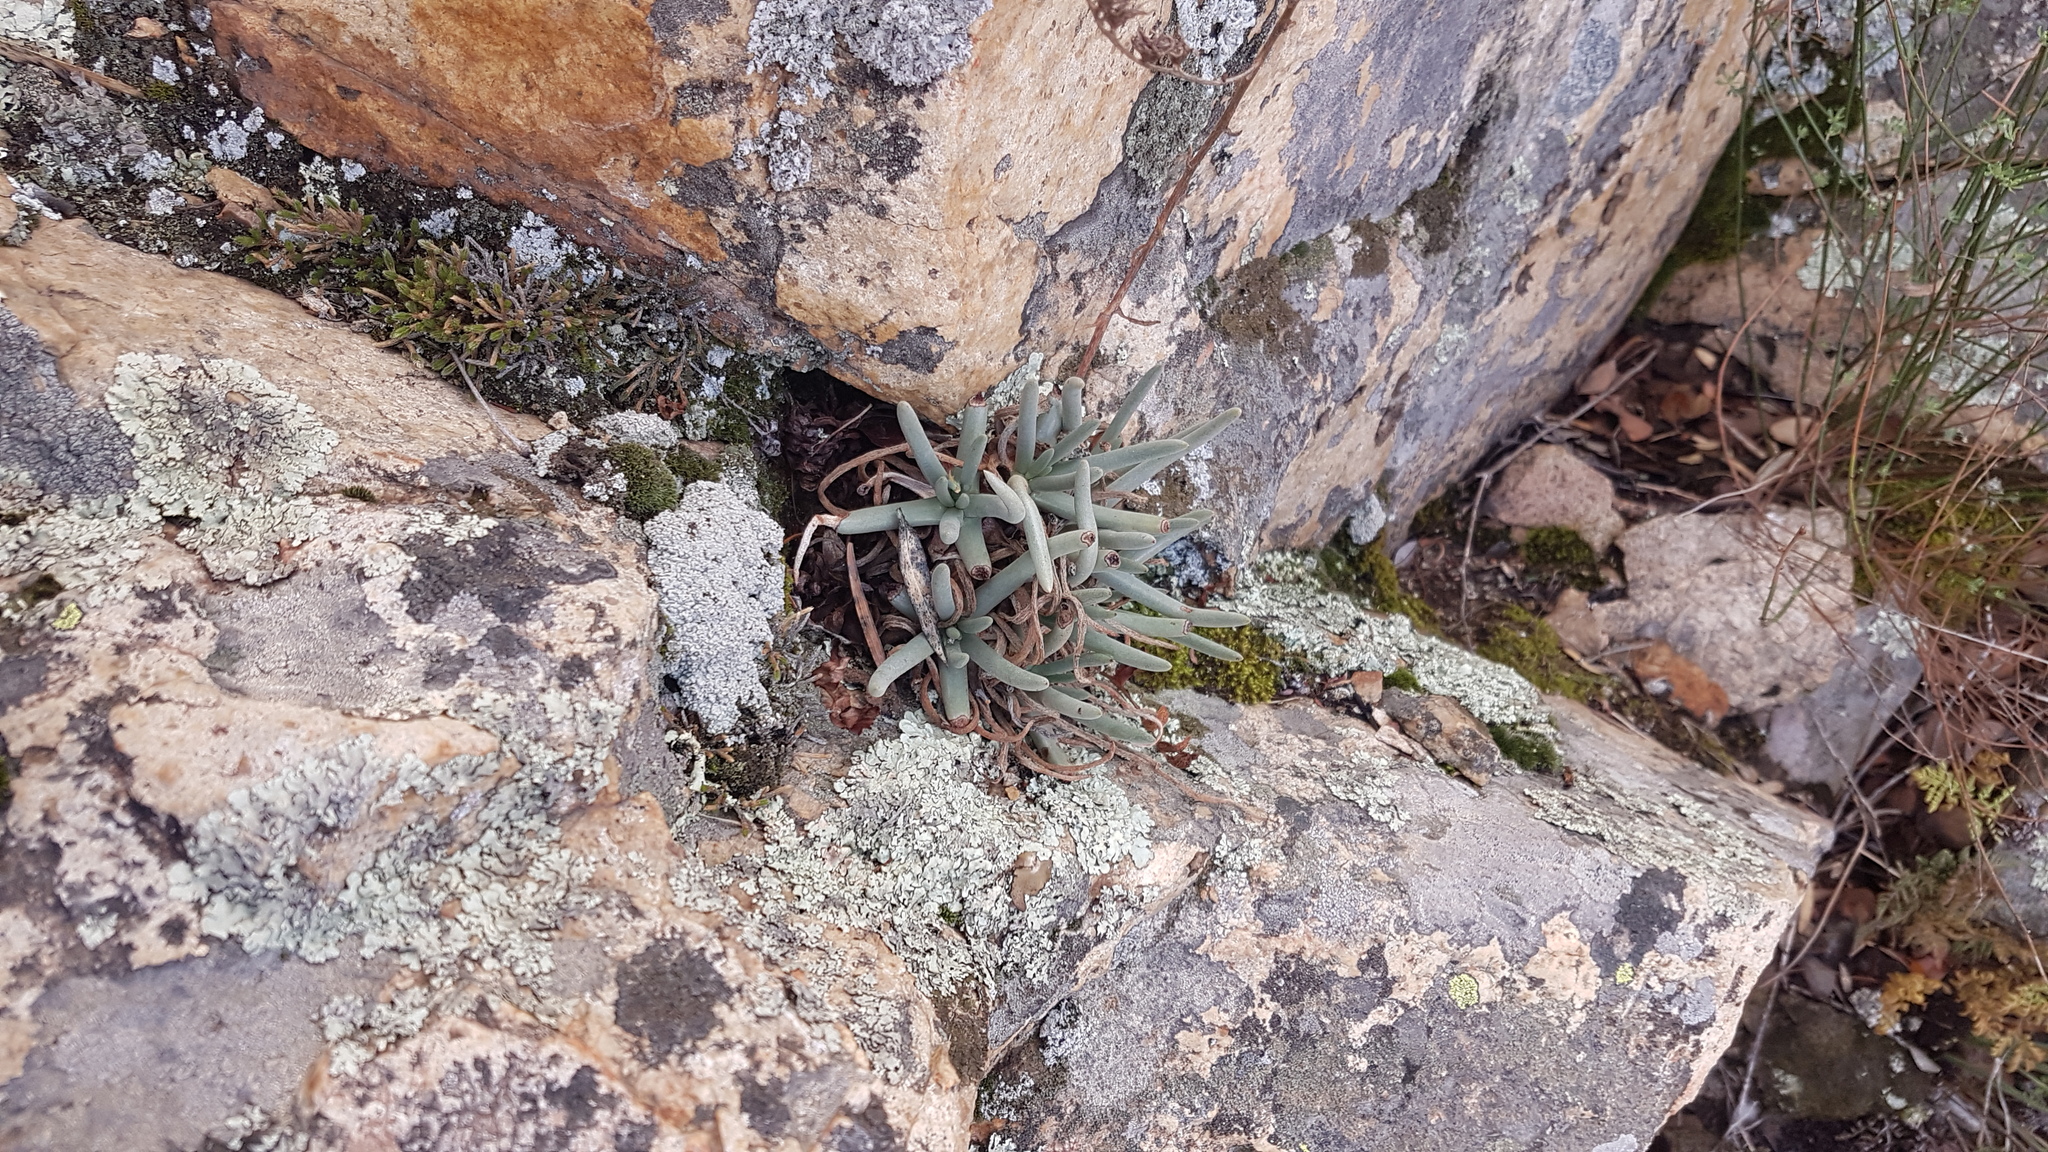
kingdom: Plantae
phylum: Tracheophyta
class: Magnoliopsida
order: Saxifragales
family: Crassulaceae
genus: Dudleya
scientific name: Dudleya edulis
